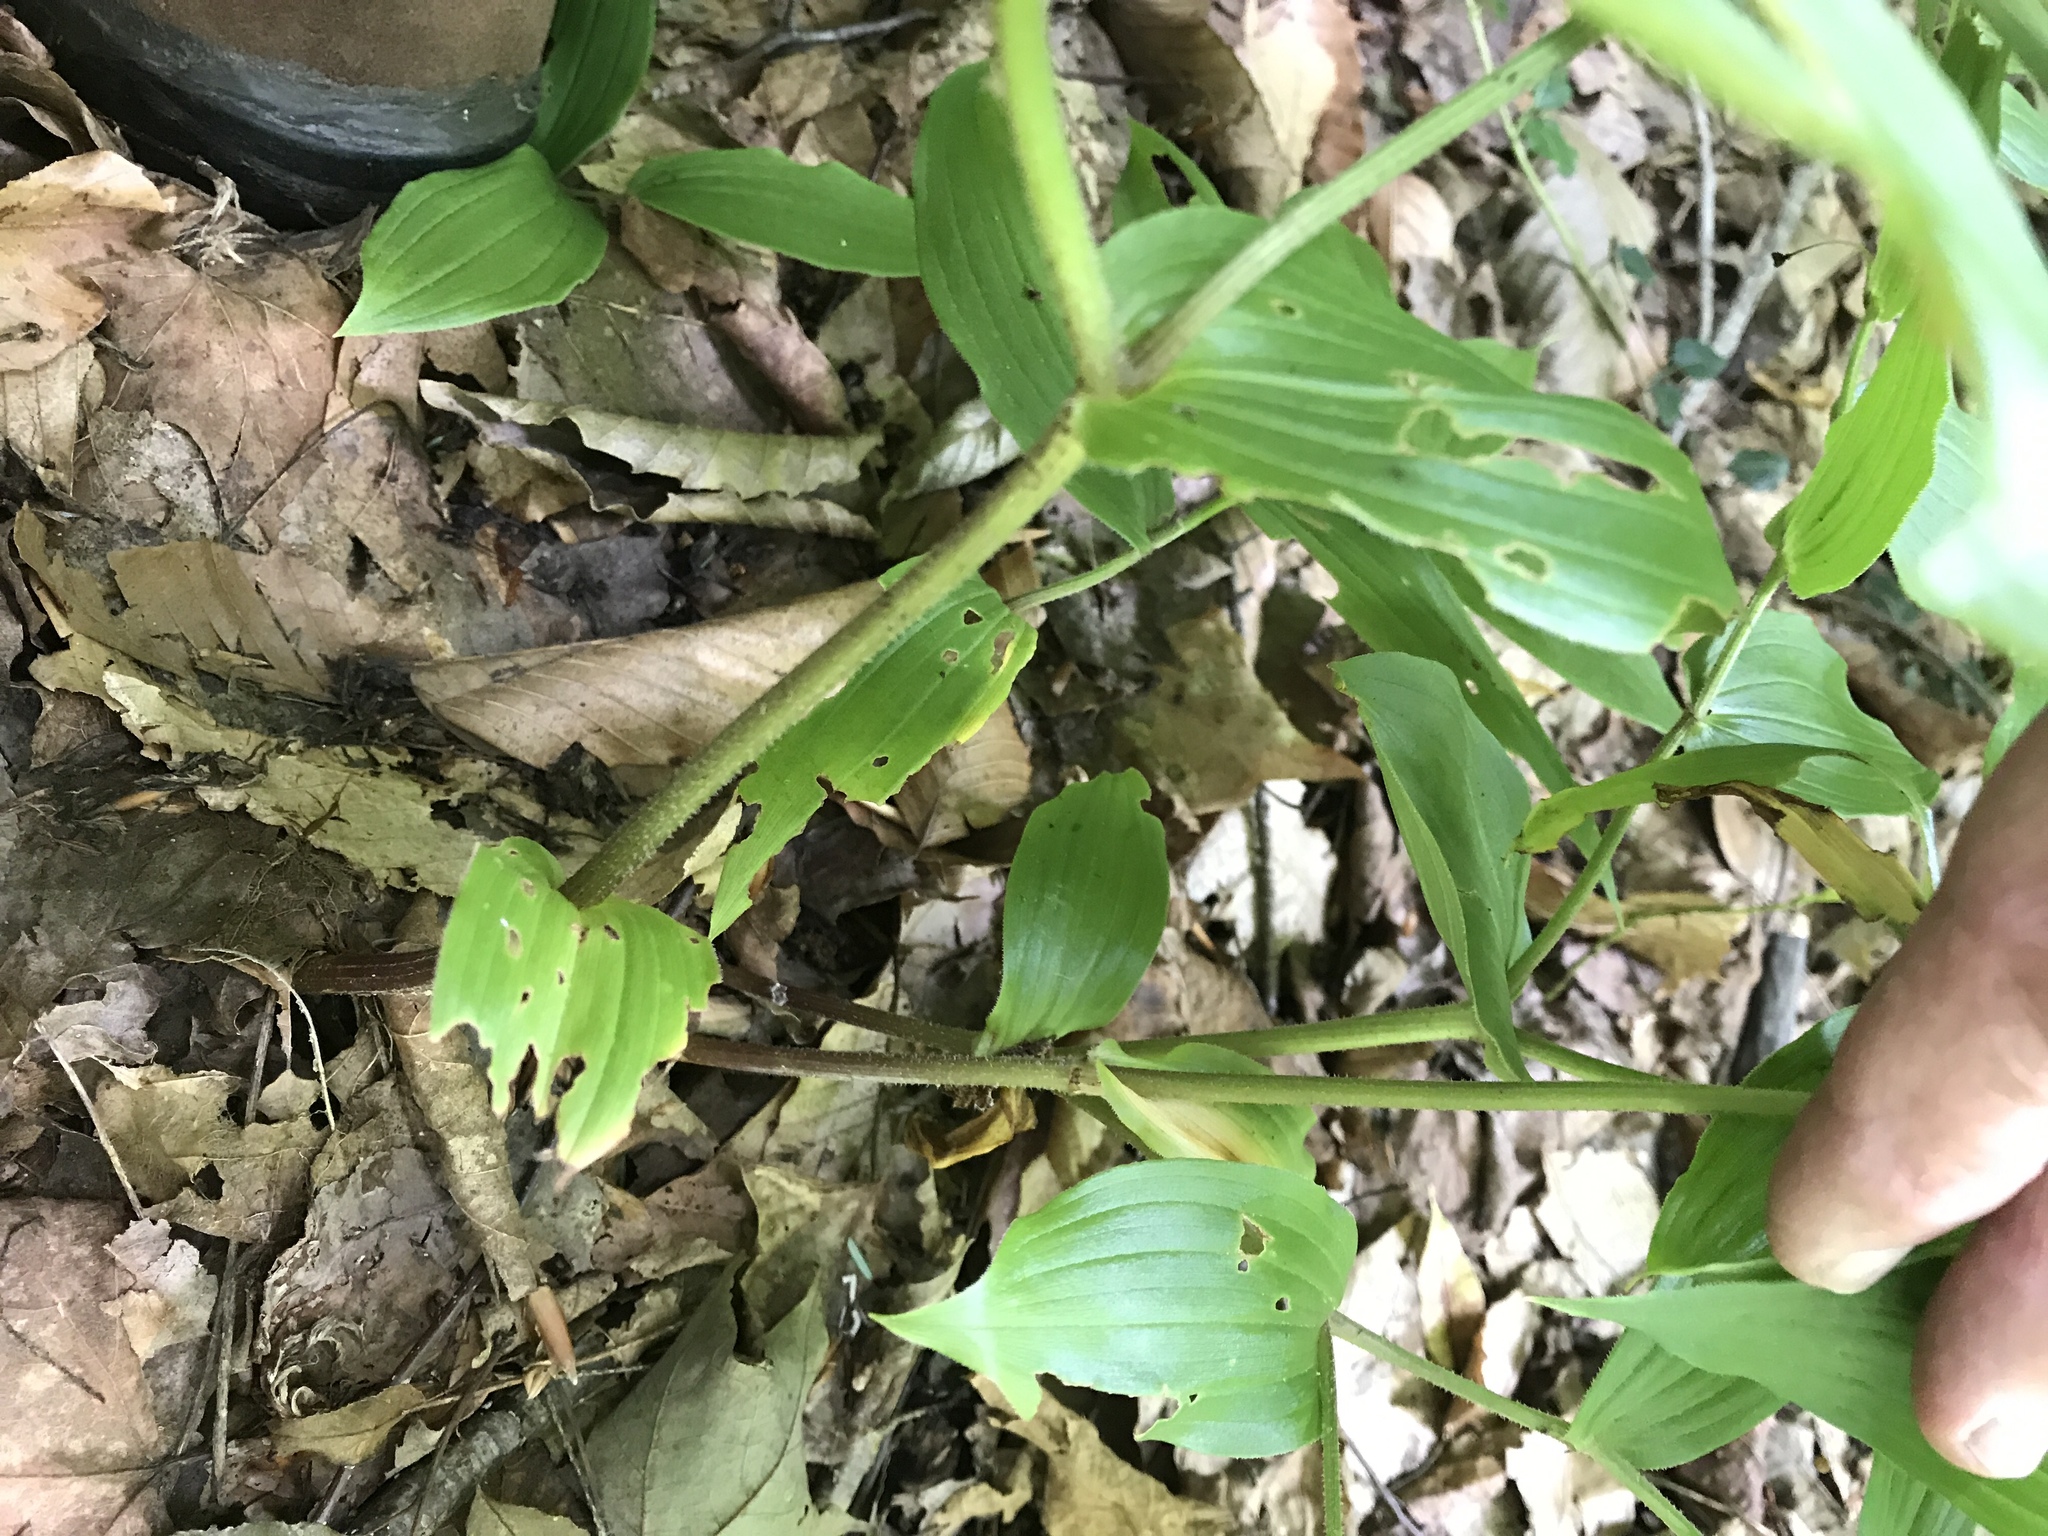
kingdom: Plantae
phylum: Tracheophyta
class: Liliopsida
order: Liliales
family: Liliaceae
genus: Streptopus
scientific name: Streptopus lanceolatus
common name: Rose mandarin
